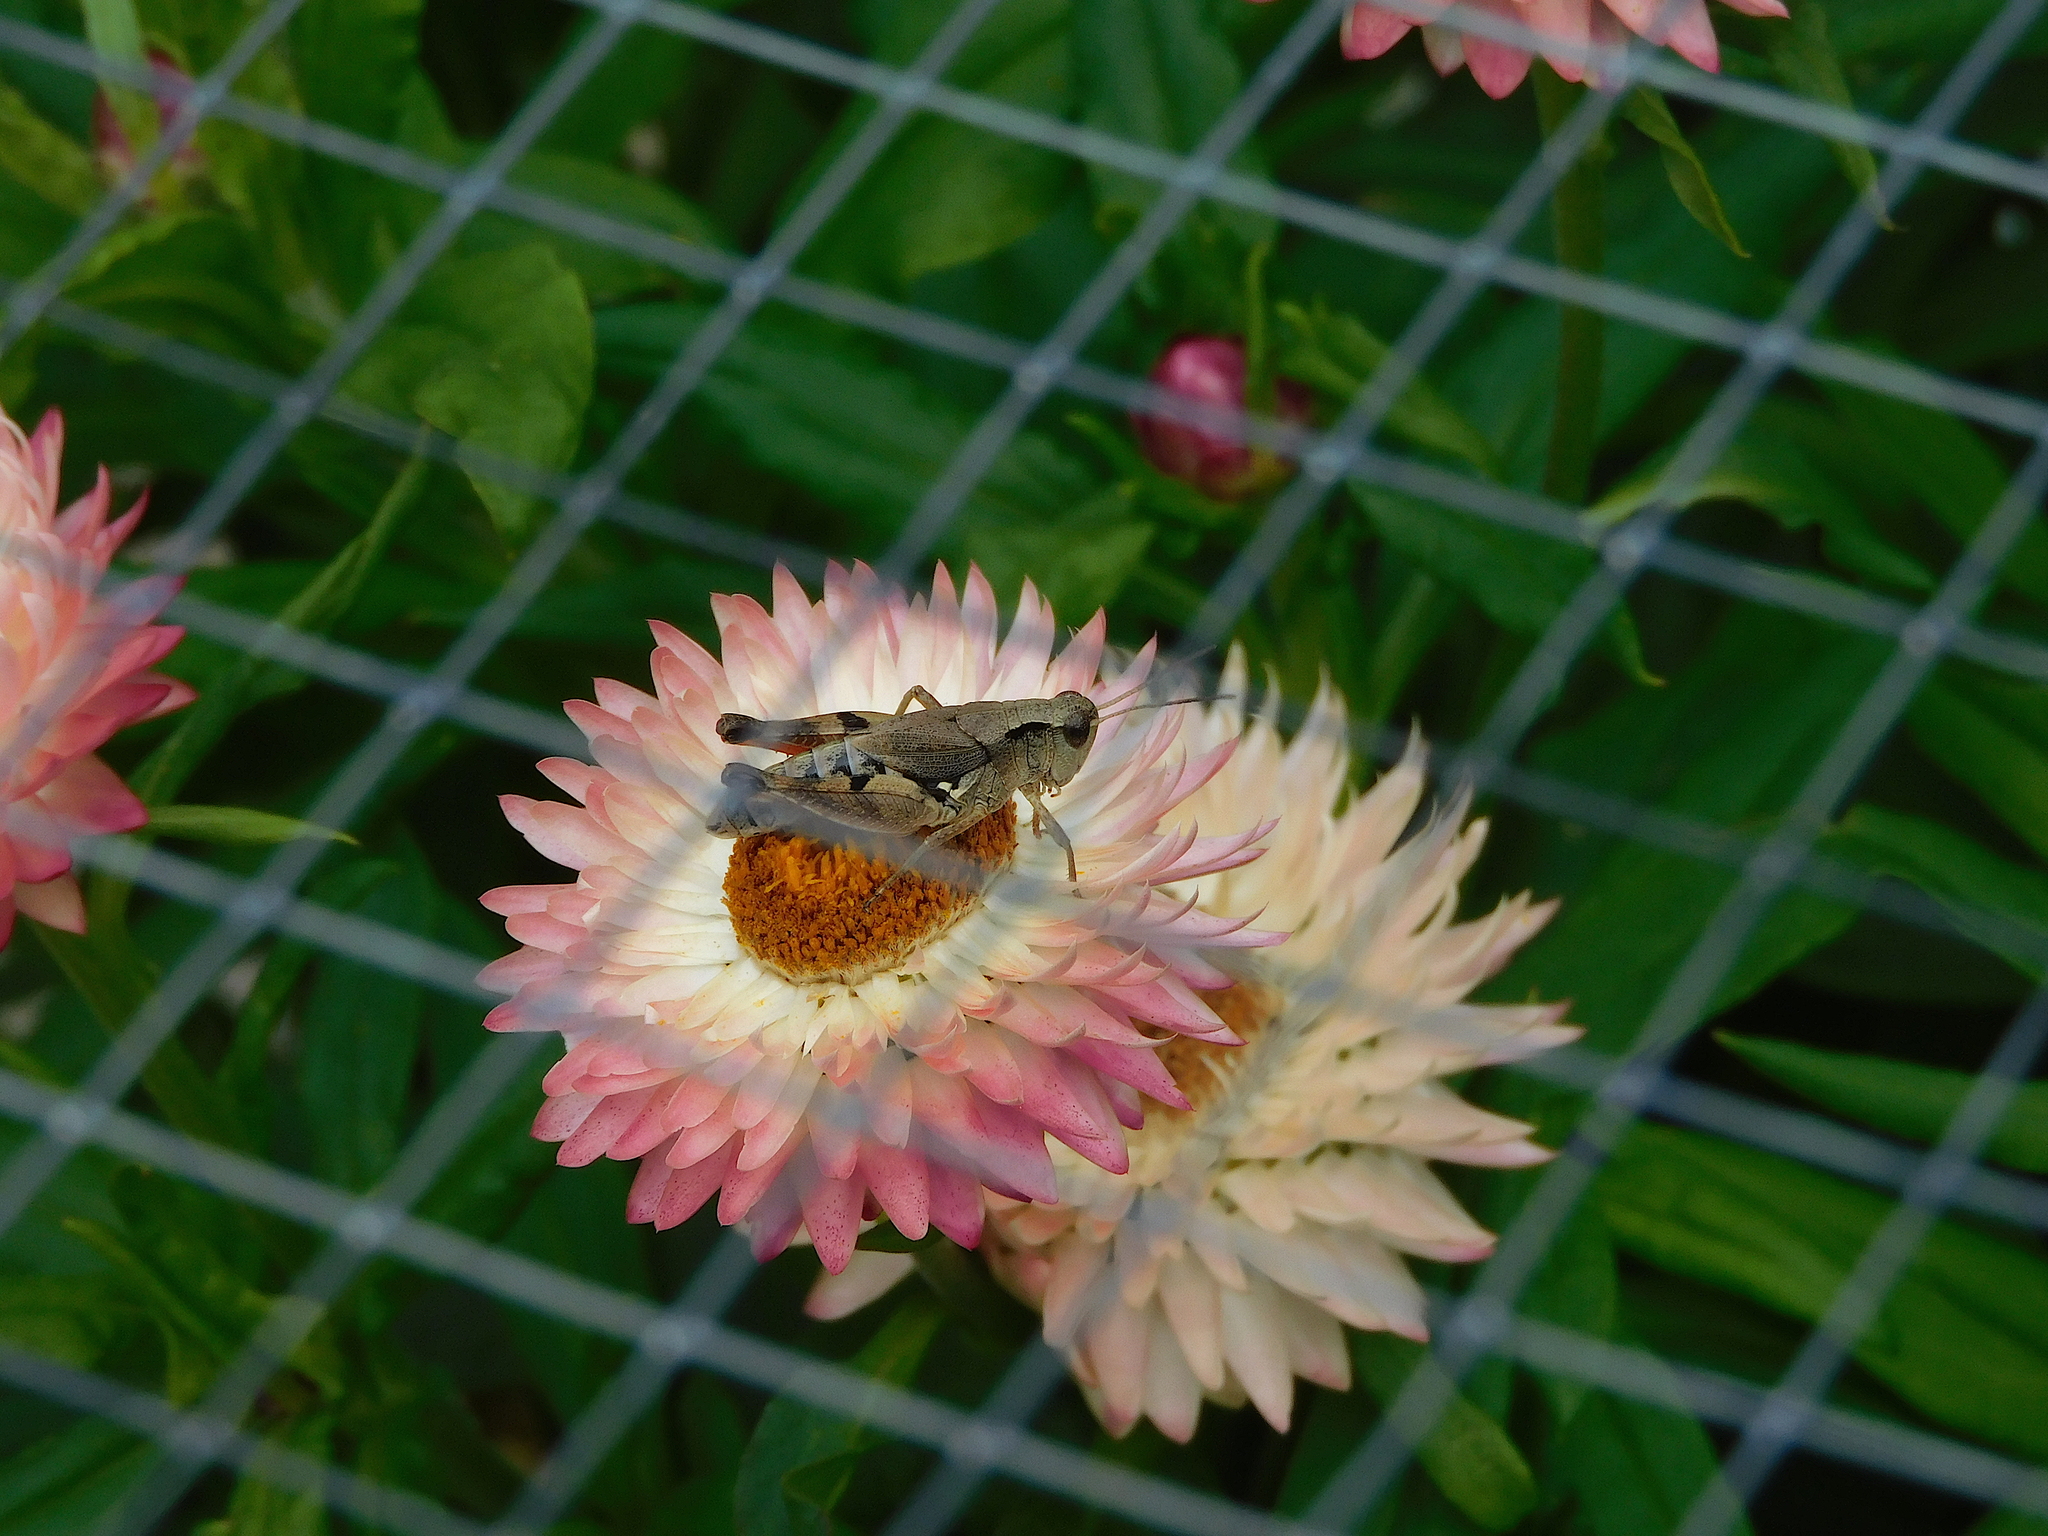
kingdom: Animalia
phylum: Arthropoda
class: Insecta
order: Orthoptera
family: Acrididae
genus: Phaulacridium
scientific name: Phaulacridium vittatum
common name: Wingless grasshopper
